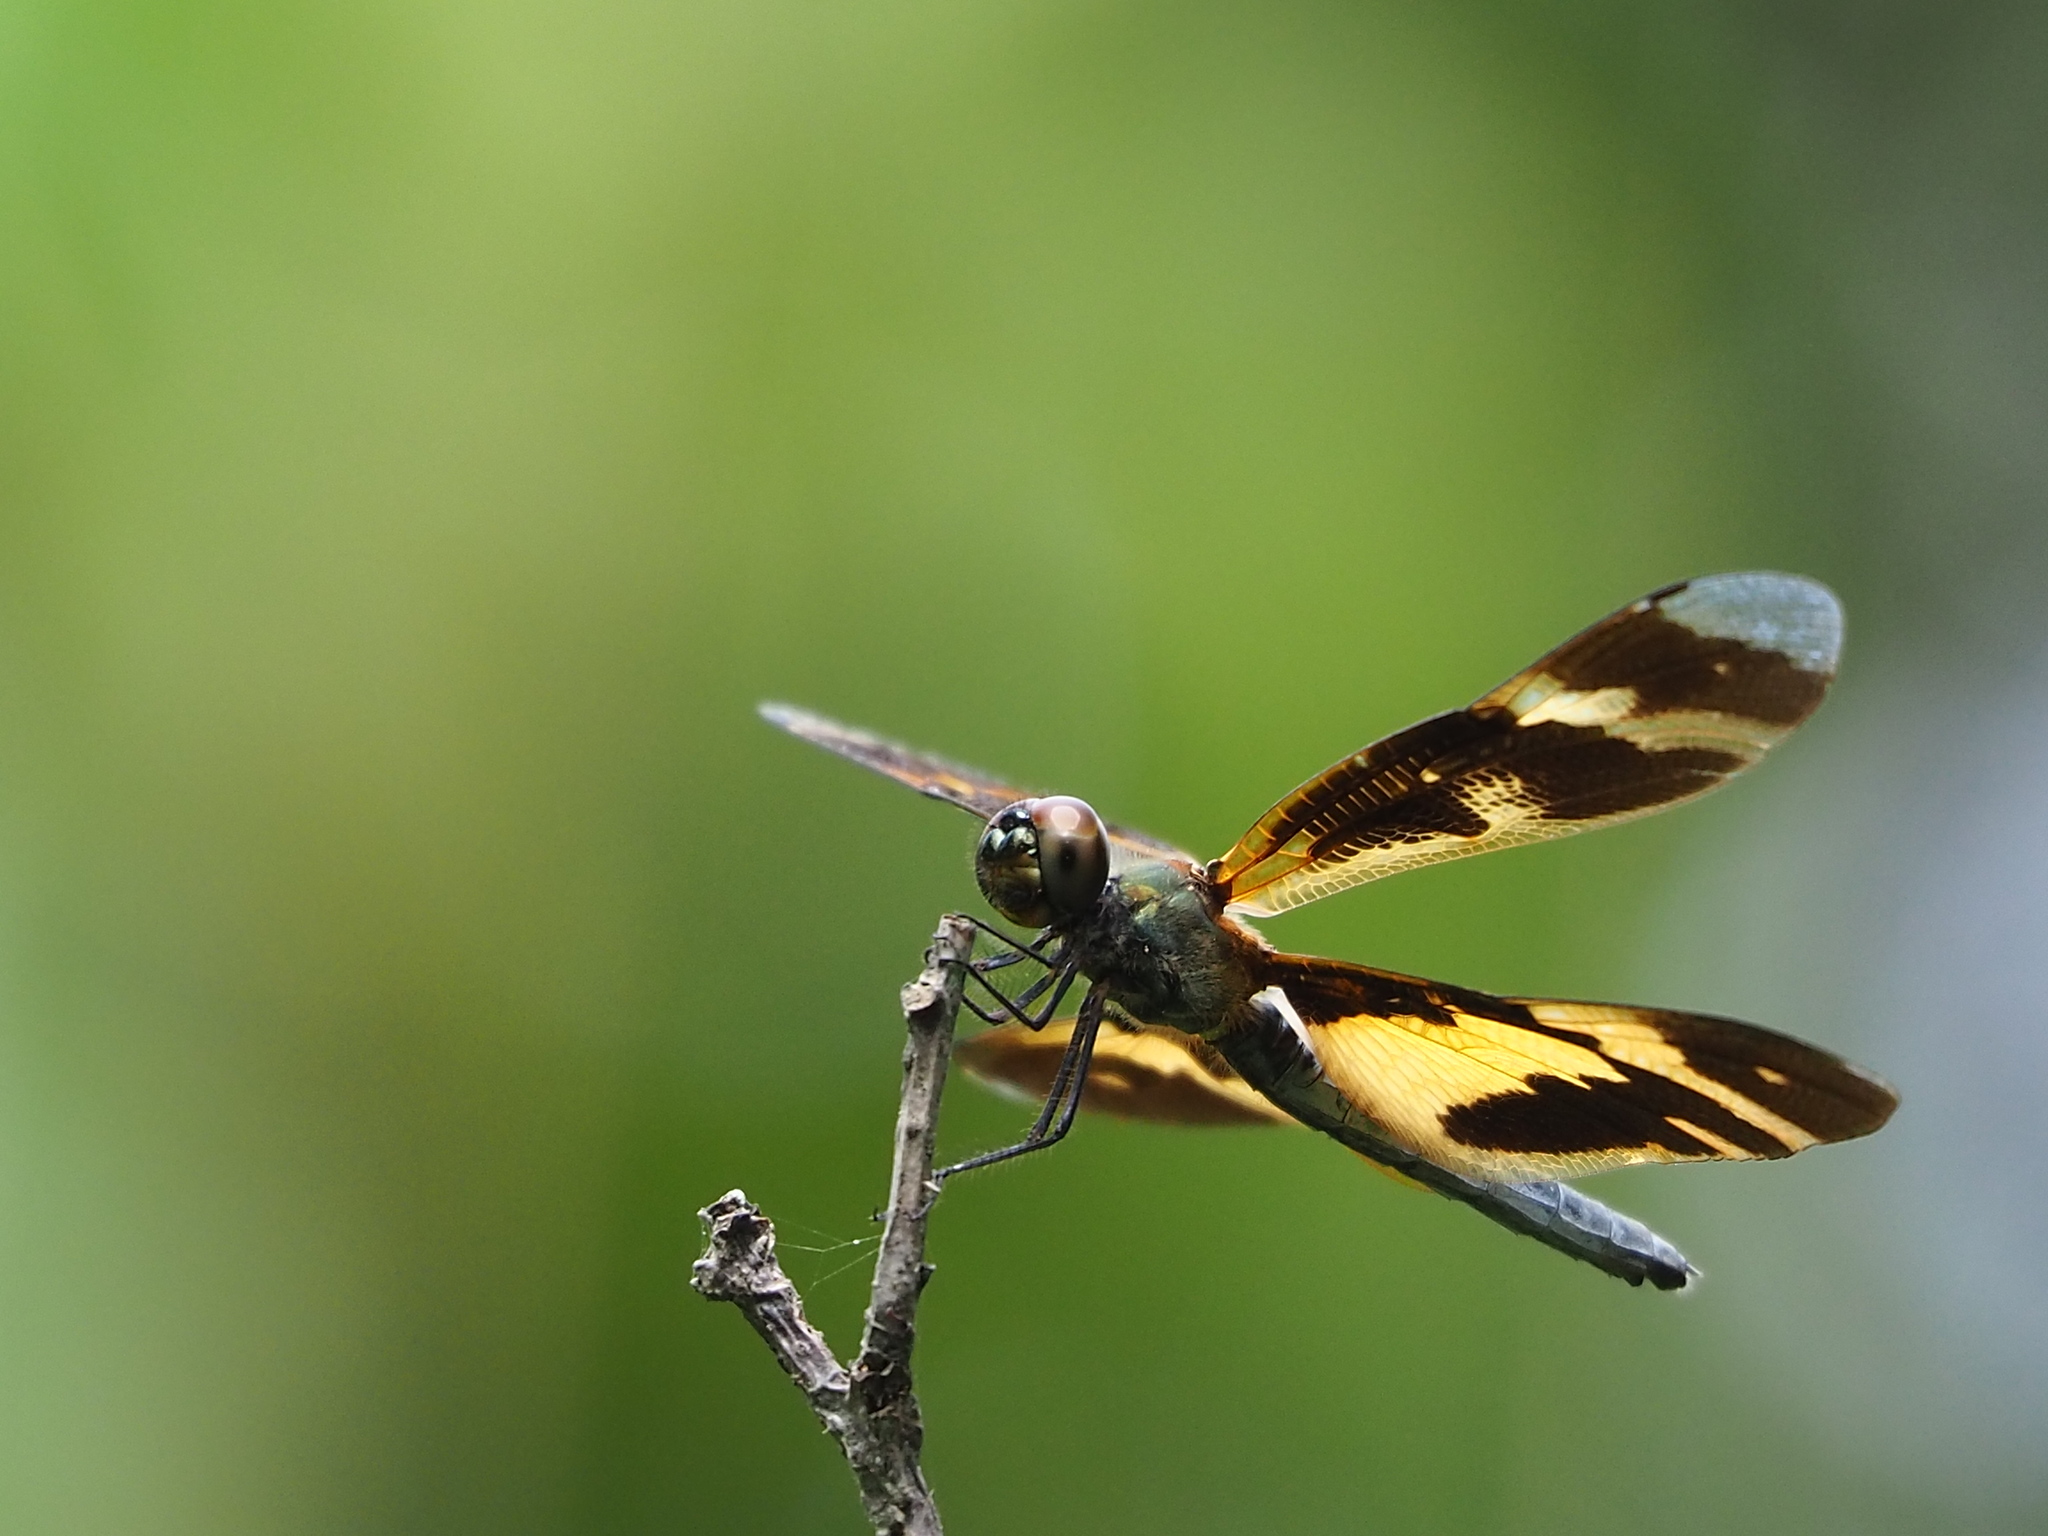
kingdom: Animalia
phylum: Arthropoda
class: Insecta
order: Odonata
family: Libellulidae
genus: Rhyothemis
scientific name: Rhyothemis variegata
